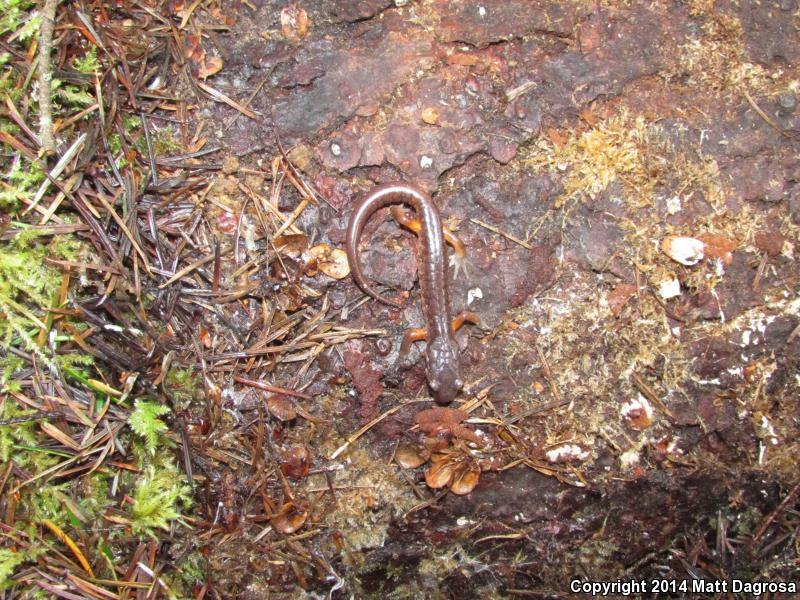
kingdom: Animalia
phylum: Chordata
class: Amphibia
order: Caudata
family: Plethodontidae
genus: Ensatina
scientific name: Ensatina eschscholtzii
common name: Ensatina
